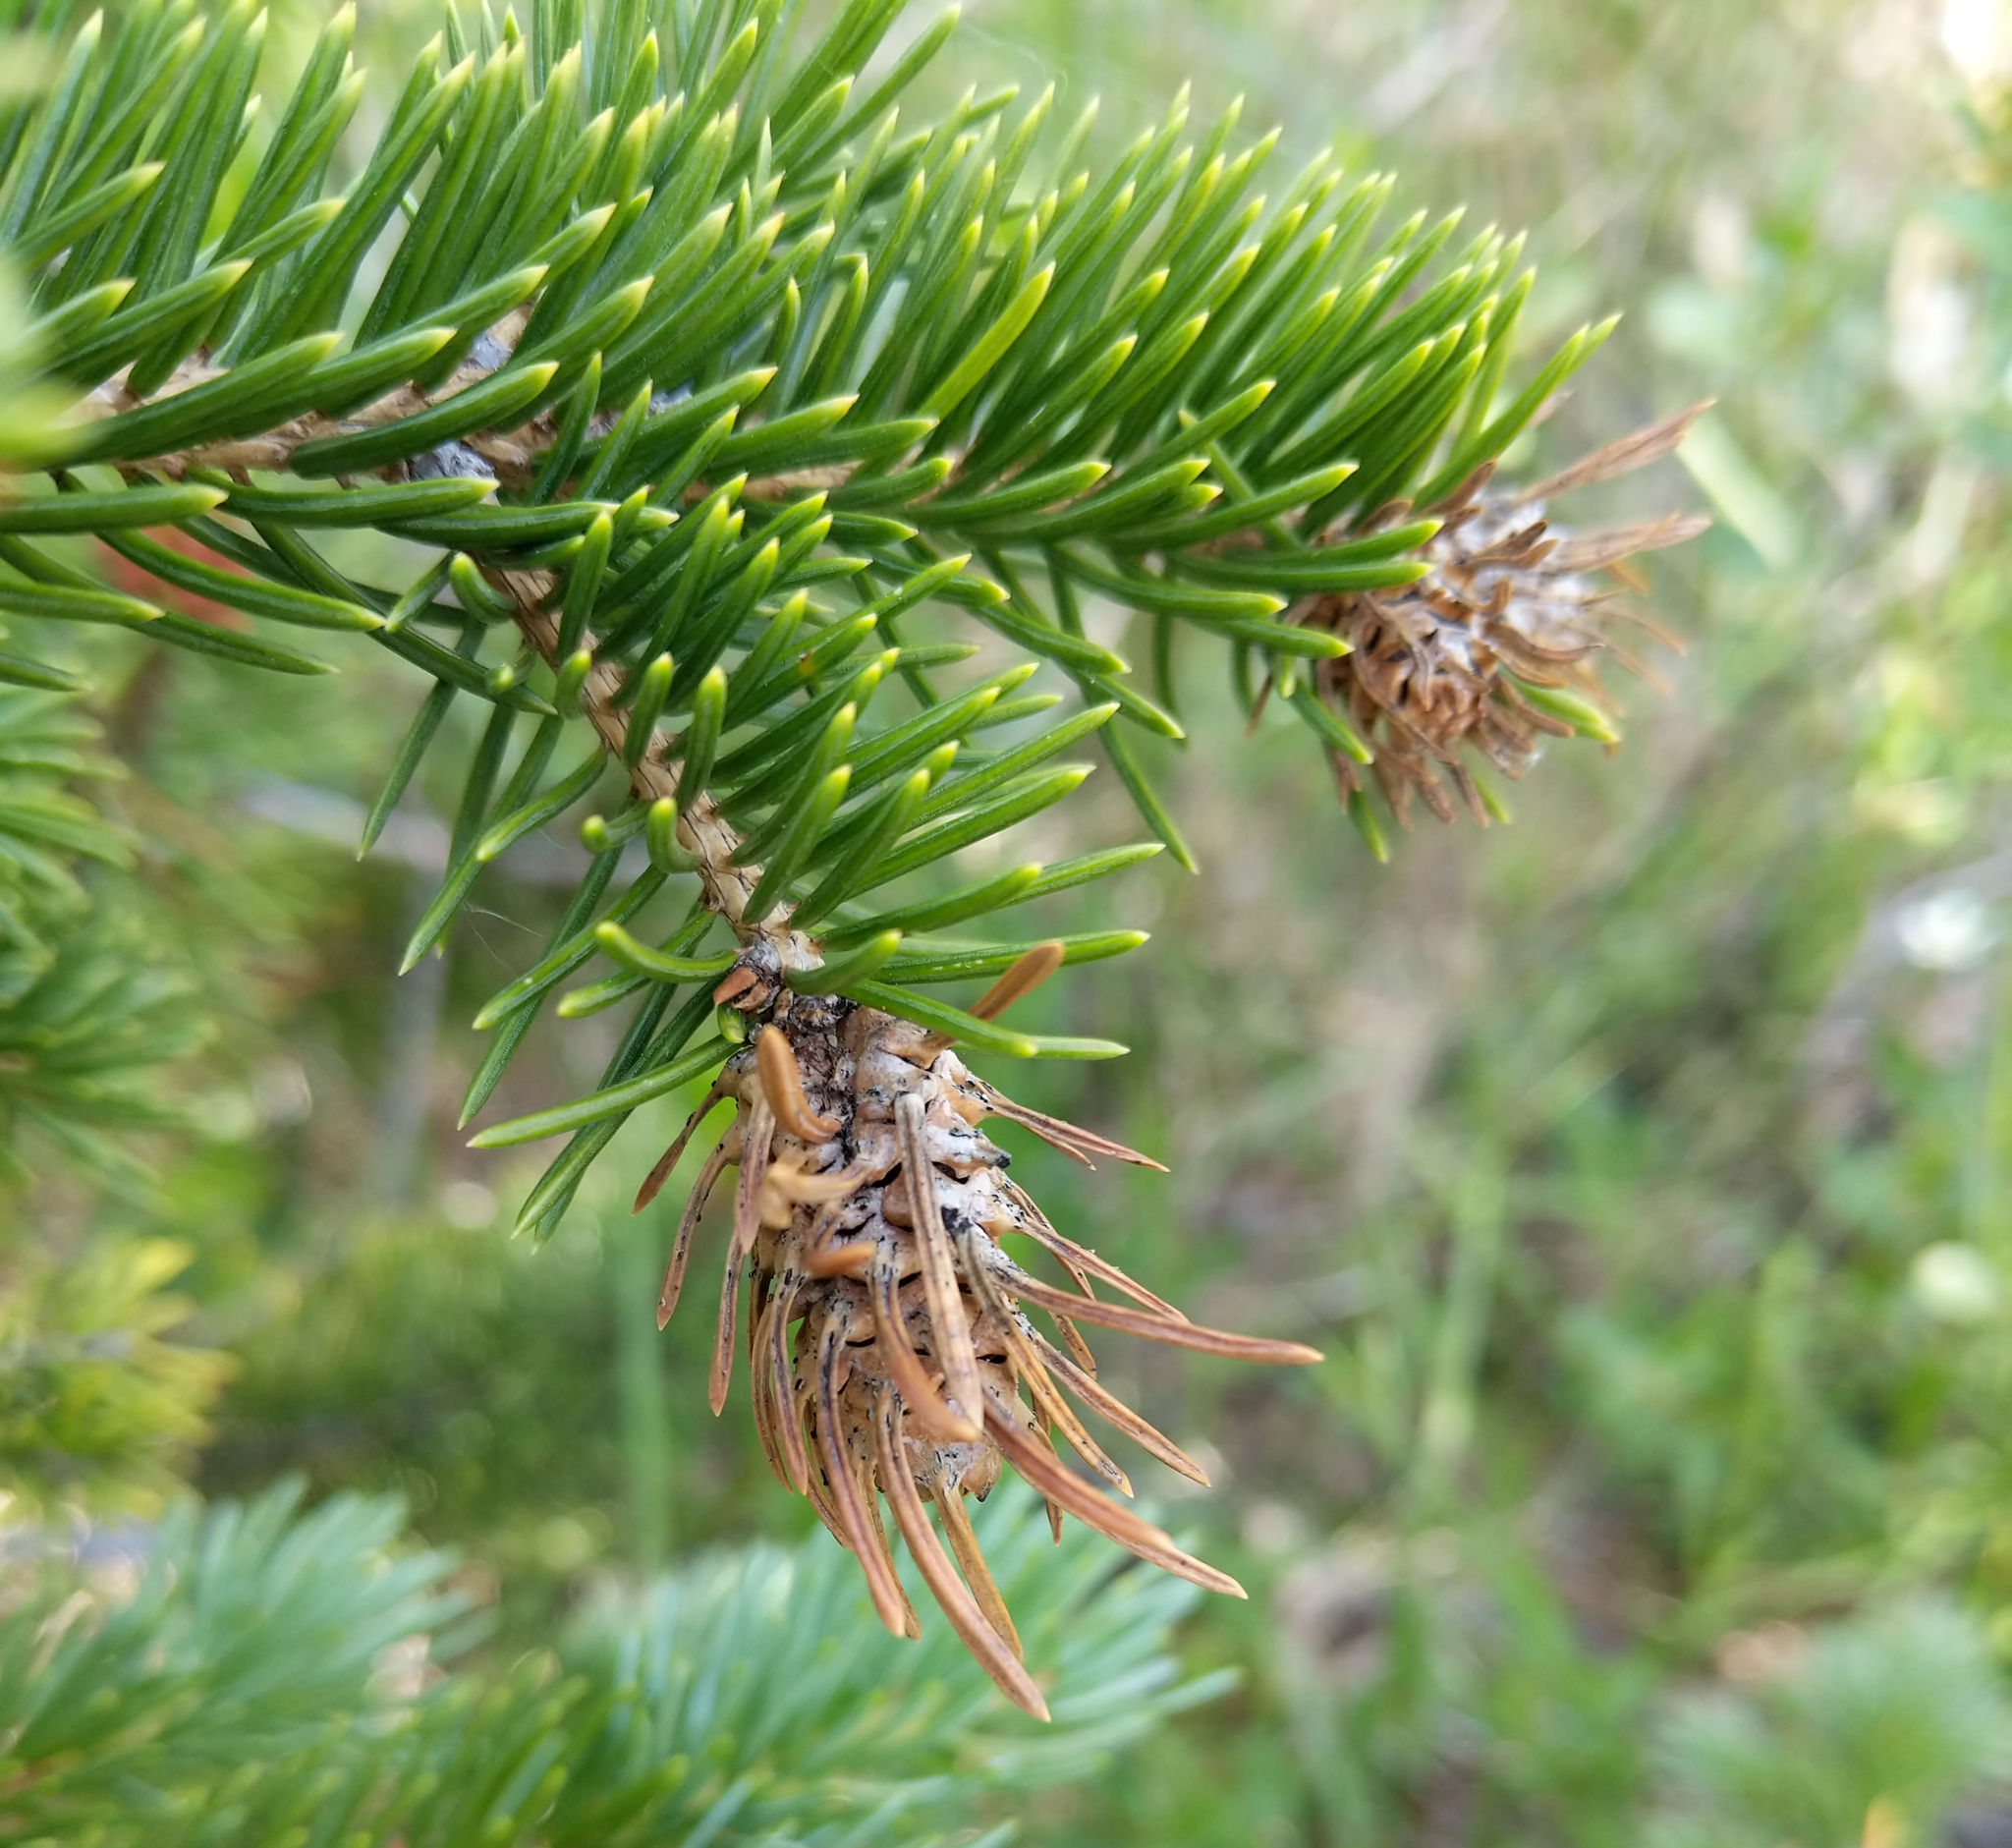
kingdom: Animalia
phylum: Arthropoda
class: Insecta
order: Hemiptera
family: Adelgidae
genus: Adelges
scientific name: Adelges cooleyi
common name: Cooley spruce gall adelgid
